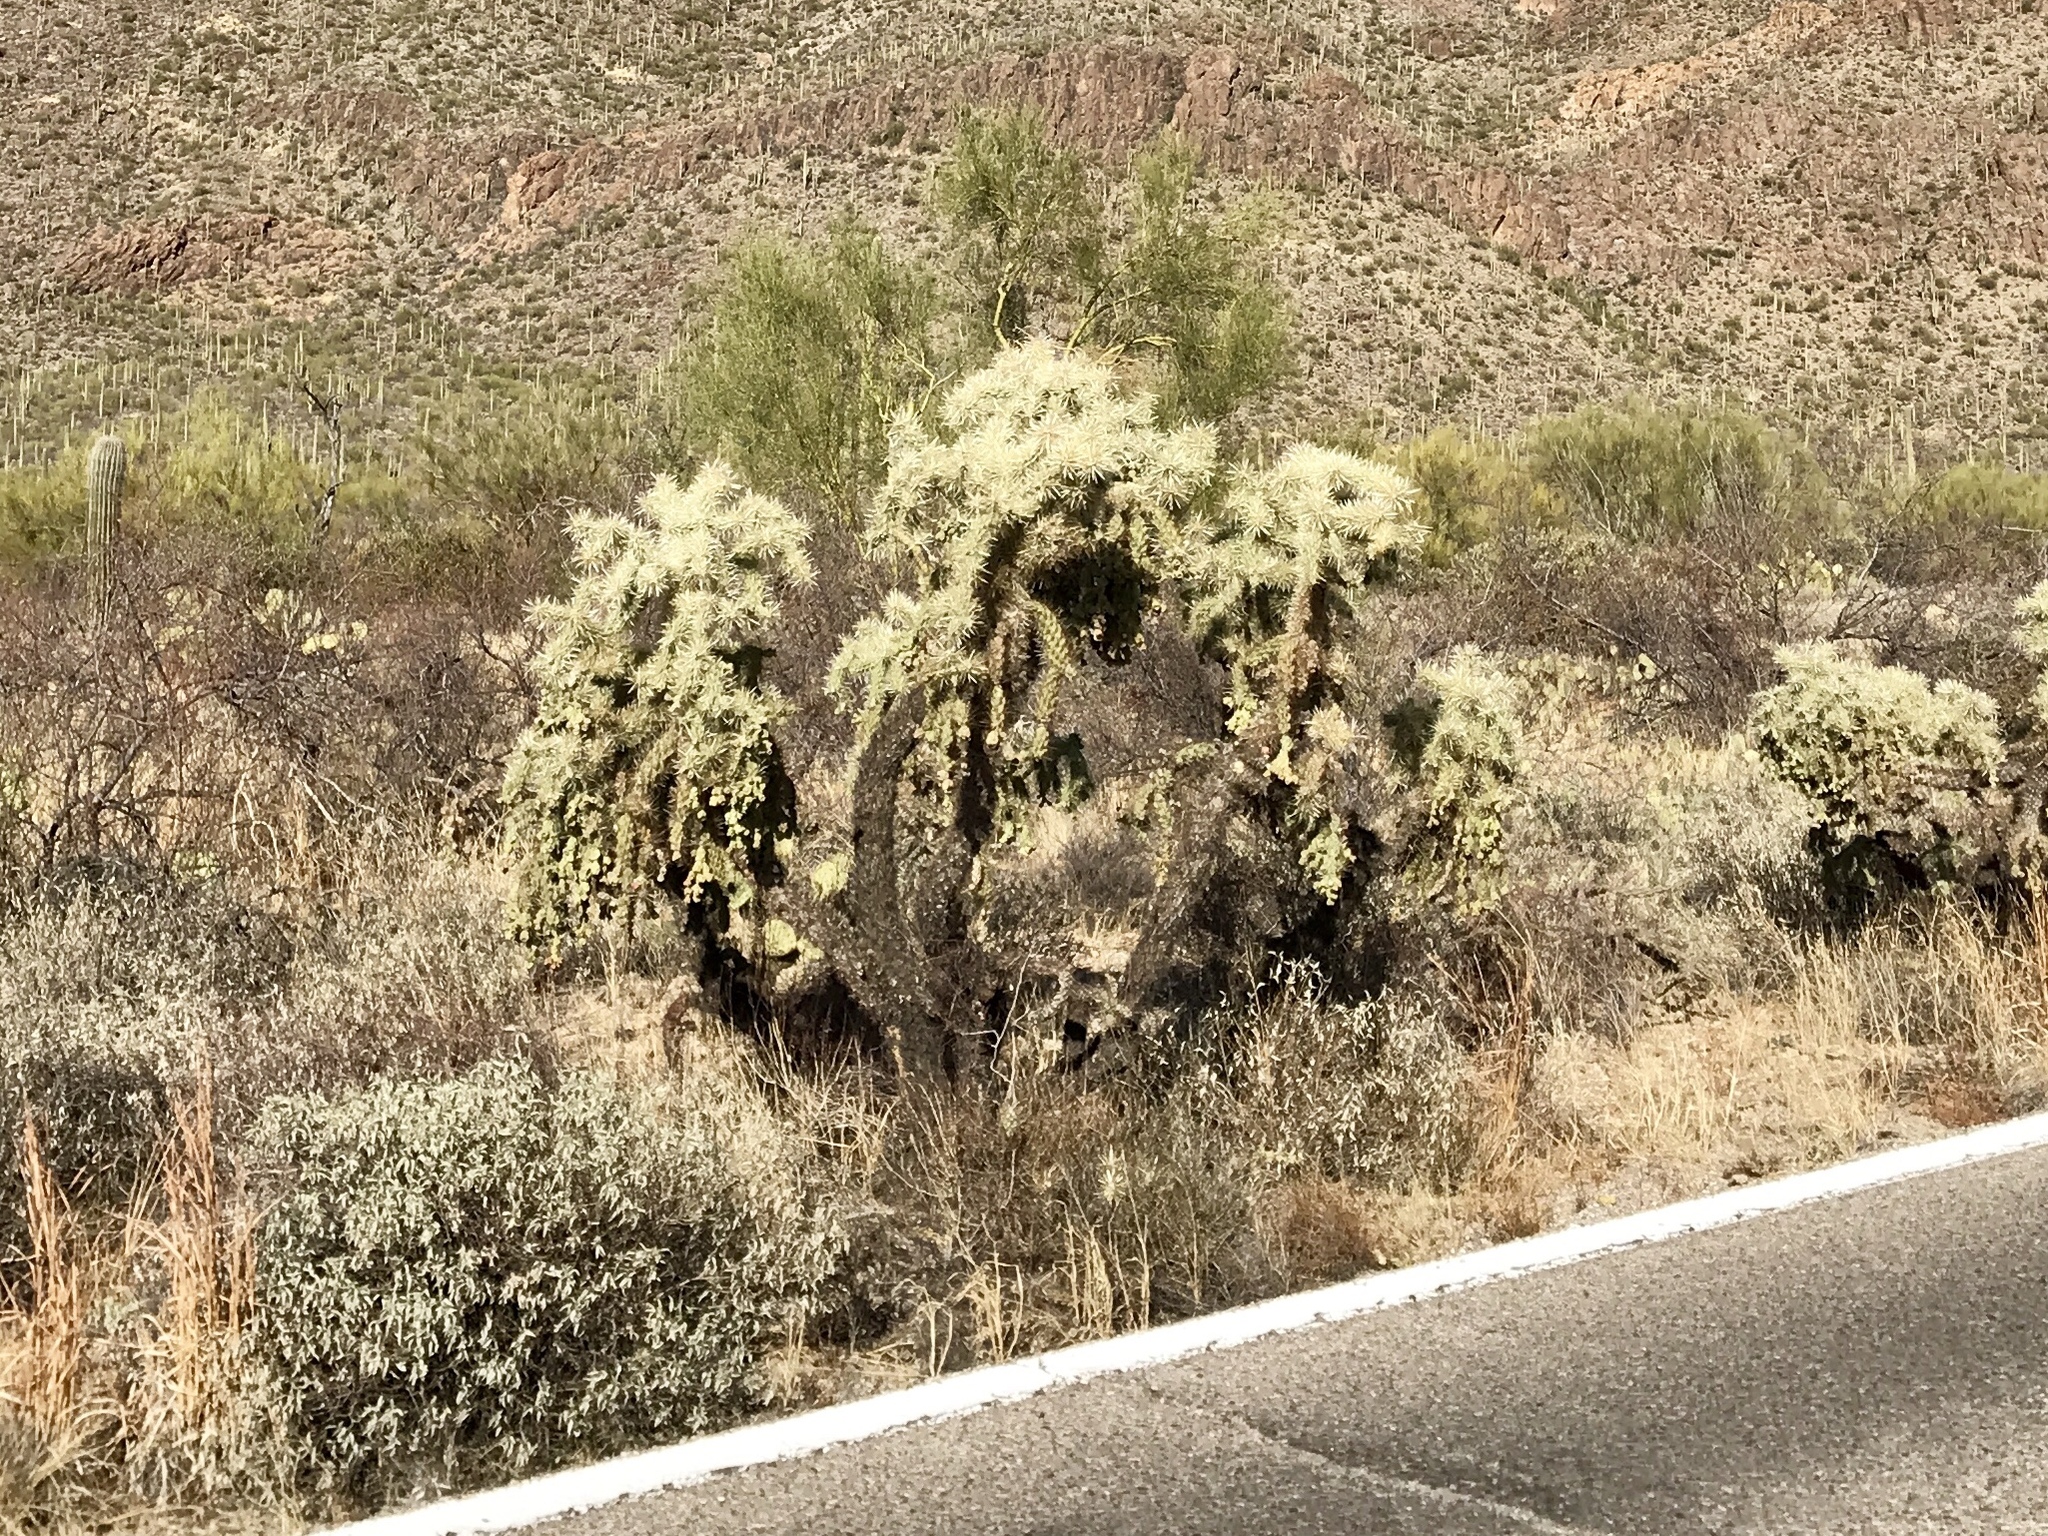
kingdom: Plantae
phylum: Tracheophyta
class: Magnoliopsida
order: Caryophyllales
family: Cactaceae
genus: Cylindropuntia
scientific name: Cylindropuntia fulgida
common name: Jumping cholla
